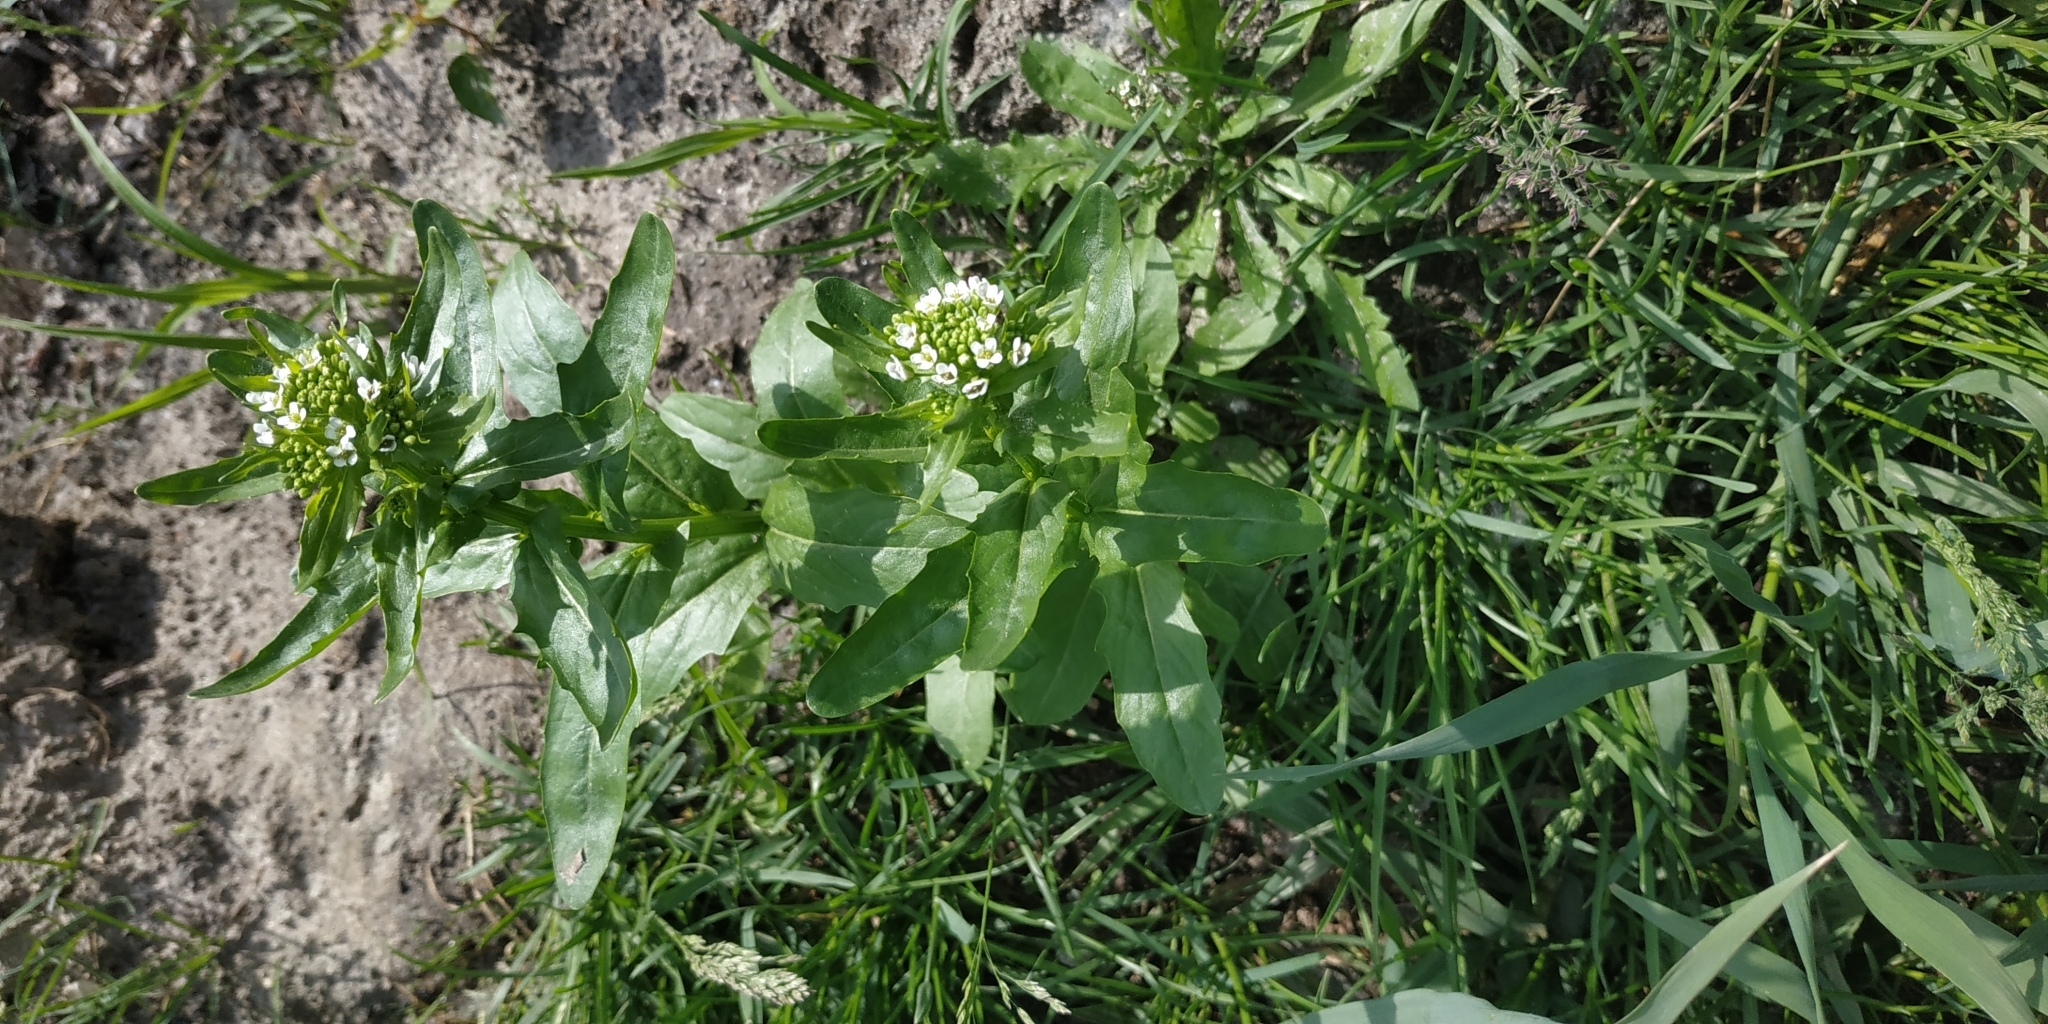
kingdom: Plantae
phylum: Tracheophyta
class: Magnoliopsida
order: Brassicales
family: Brassicaceae
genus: Thlaspi
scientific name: Thlaspi arvense
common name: Field pennycress
